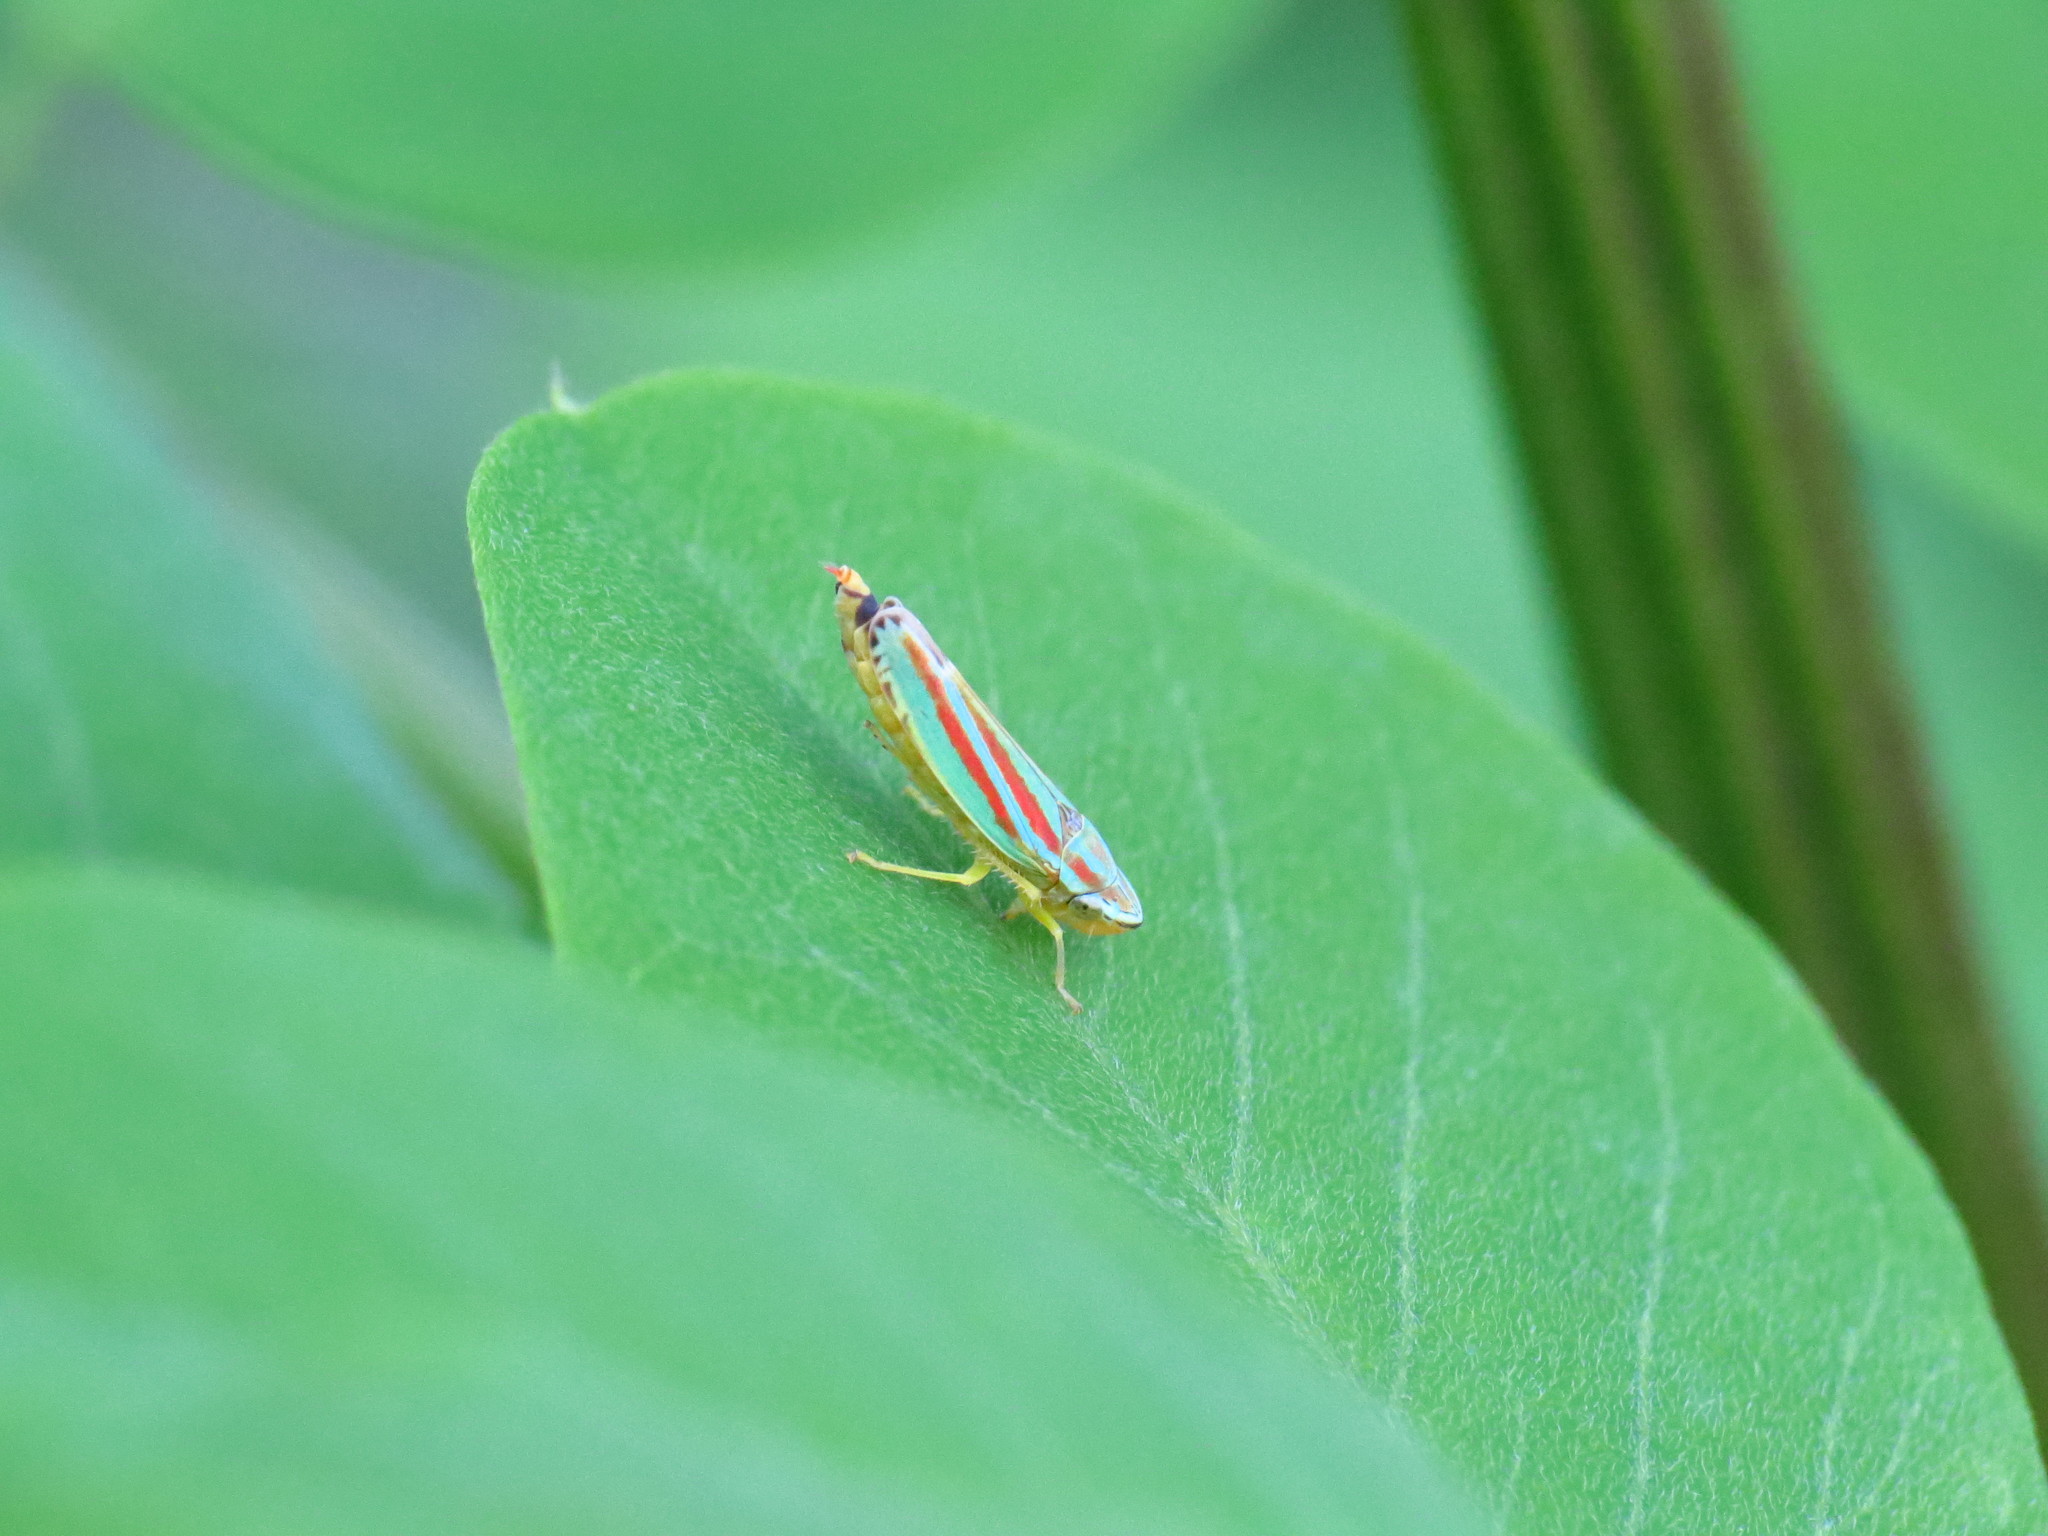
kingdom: Animalia
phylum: Arthropoda
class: Insecta
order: Hemiptera
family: Cicadellidae
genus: Graphocephala
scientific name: Graphocephala versuta
